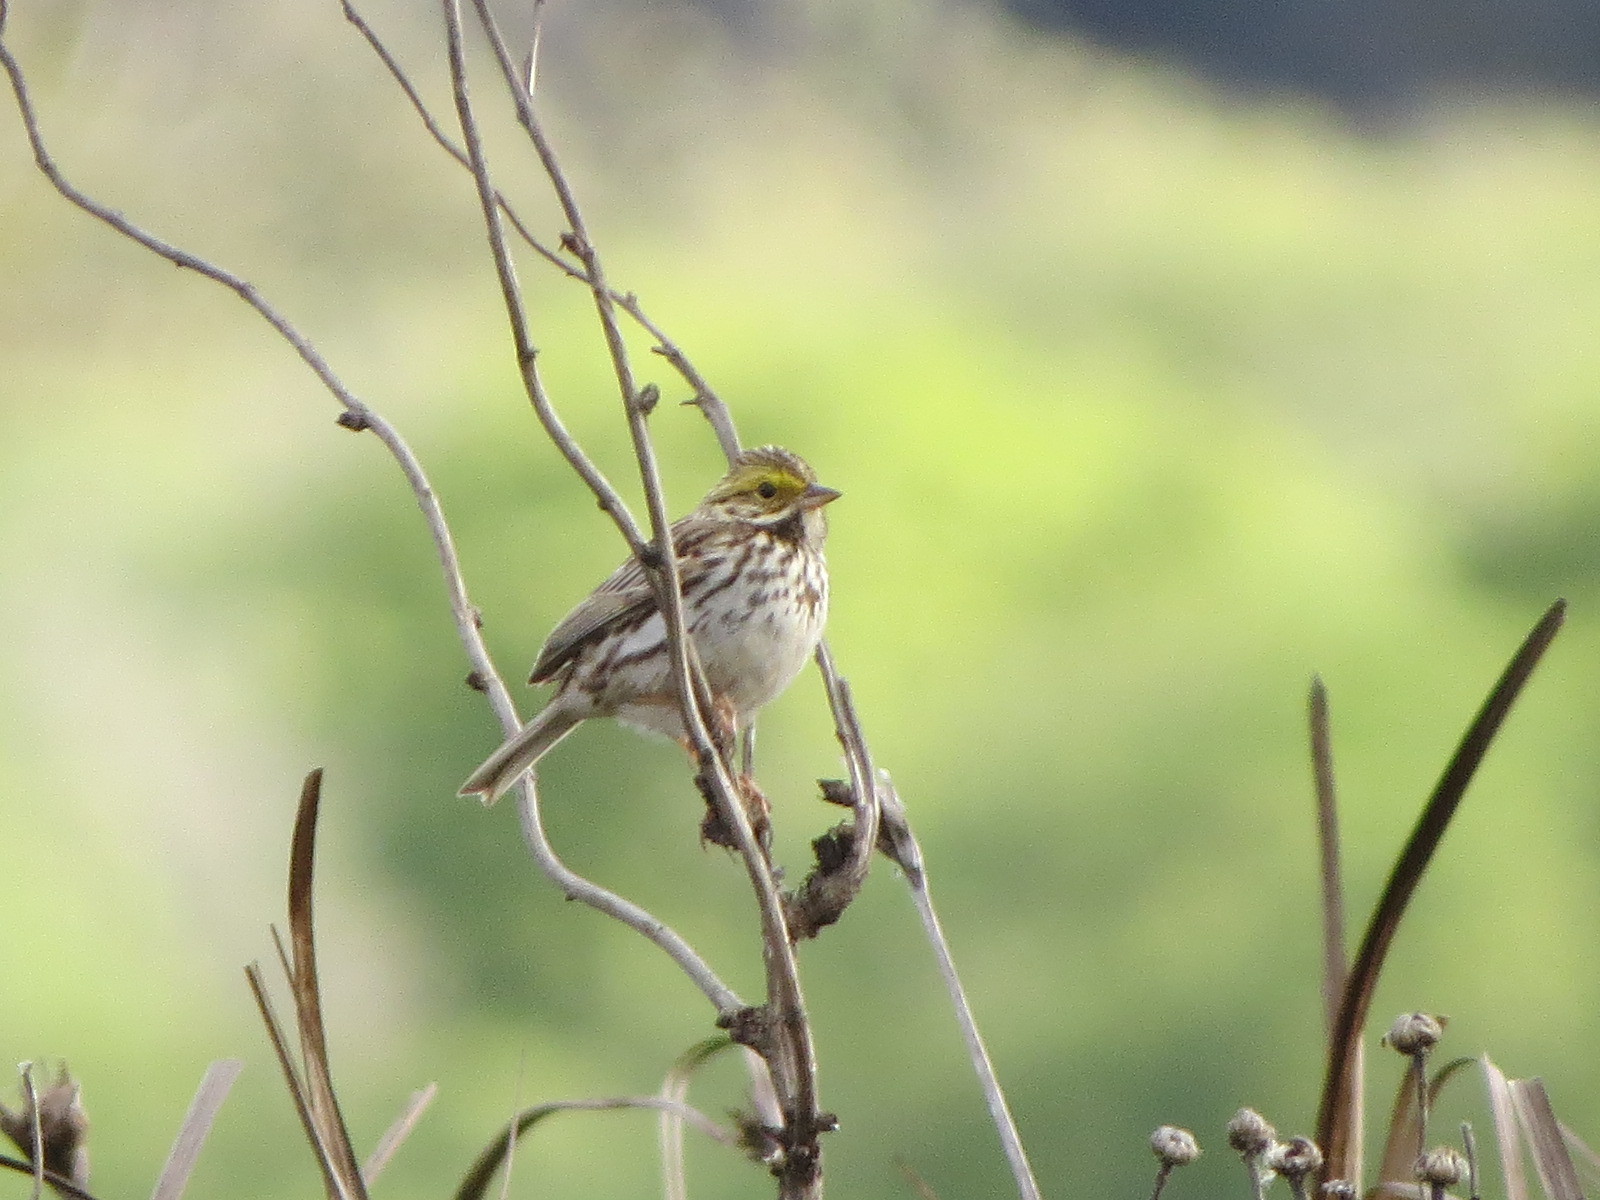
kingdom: Animalia
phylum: Chordata
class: Aves
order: Passeriformes
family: Passerellidae
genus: Passerculus
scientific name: Passerculus sandwichensis
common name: Savannah sparrow
